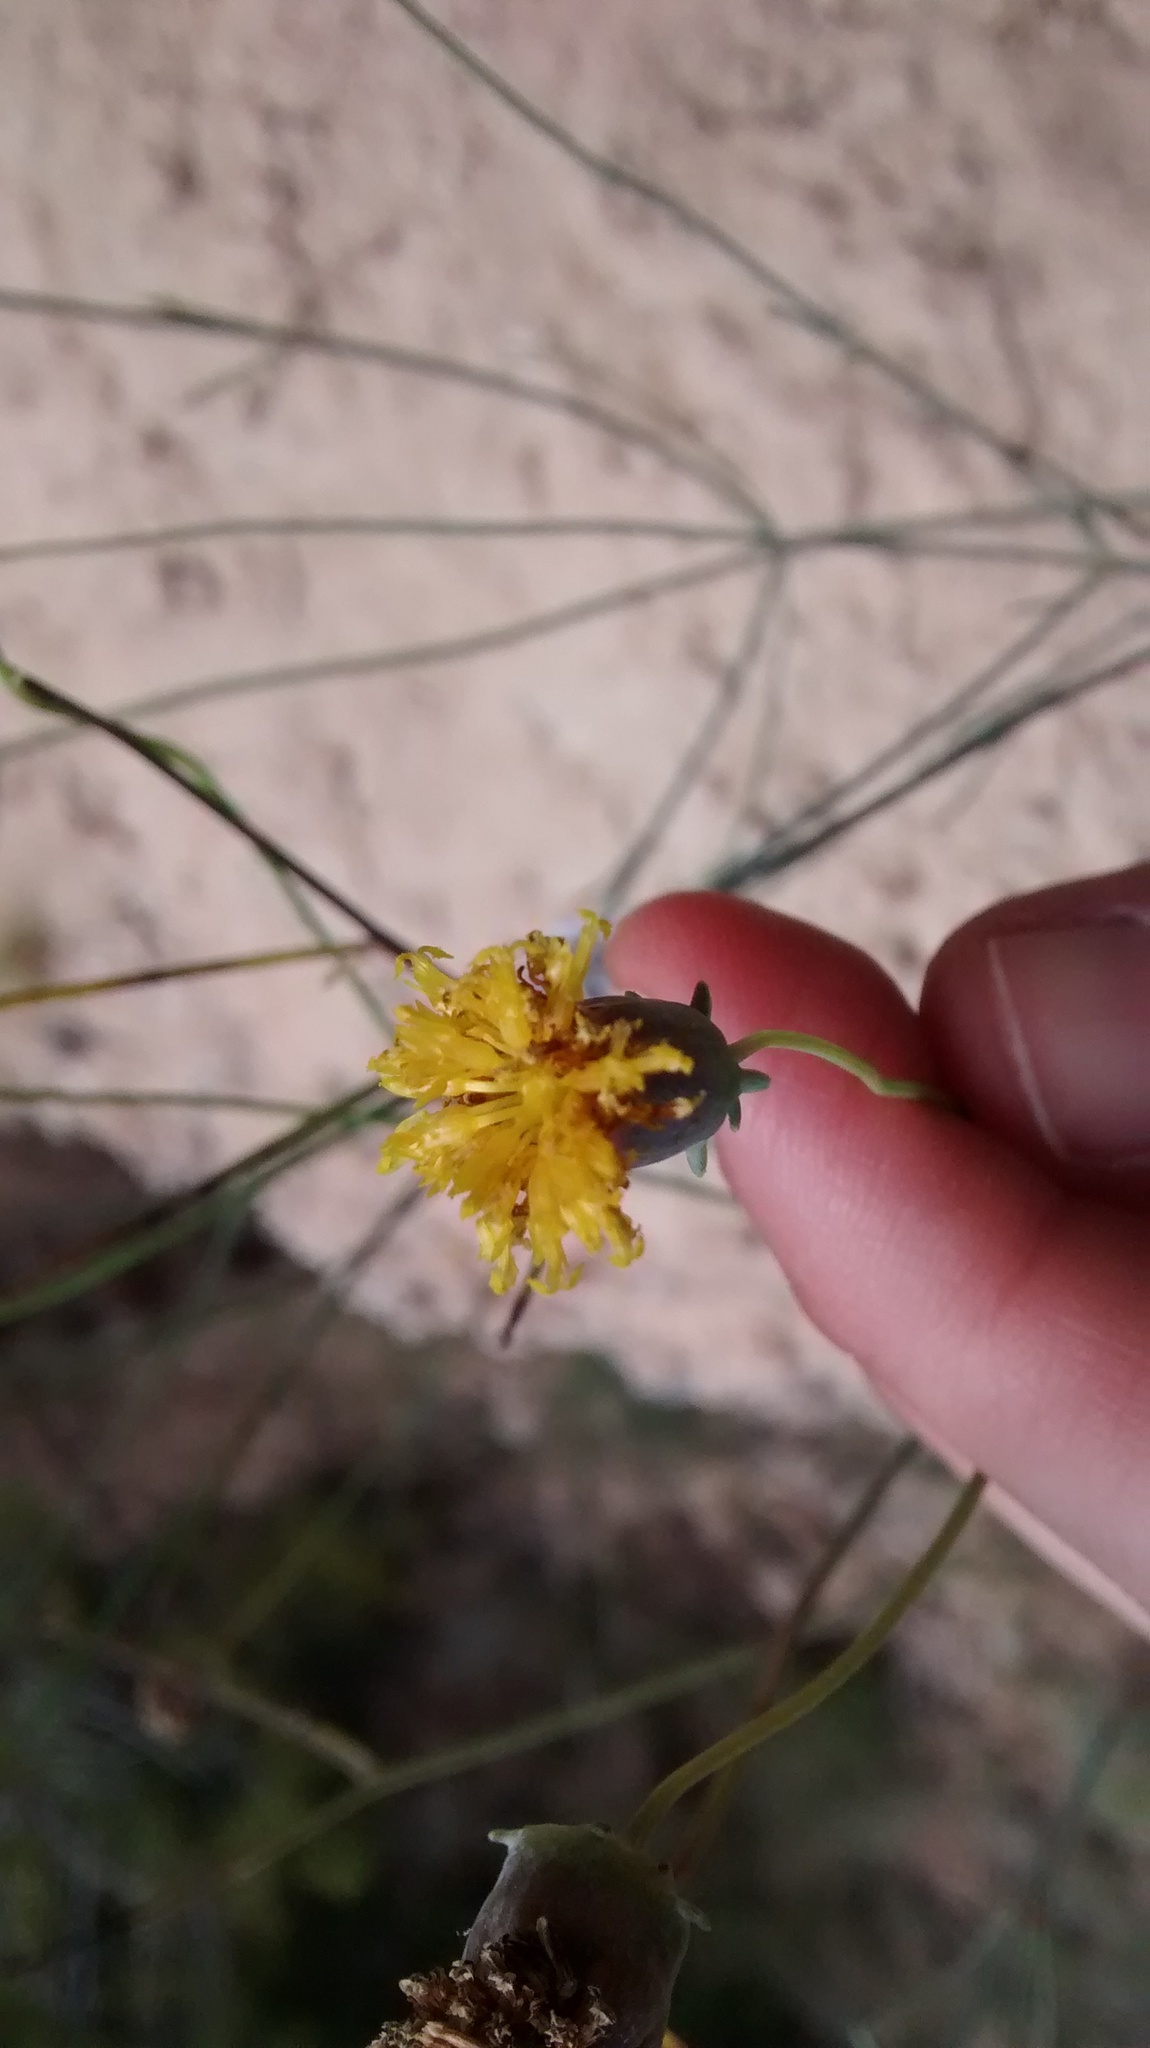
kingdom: Plantae
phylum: Tracheophyta
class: Magnoliopsida
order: Asterales
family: Asteraceae
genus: Thelesperma
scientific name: Thelesperma megapotamicum
